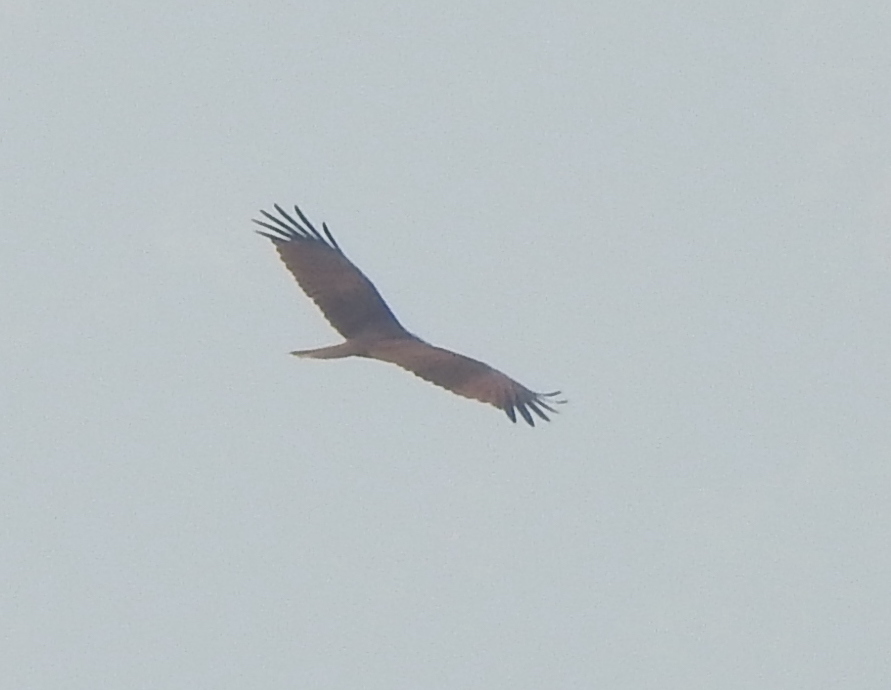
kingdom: Animalia
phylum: Chordata
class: Aves
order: Accipitriformes
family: Accipitridae
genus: Haliastur
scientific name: Haliastur indus
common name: Brahminy kite
